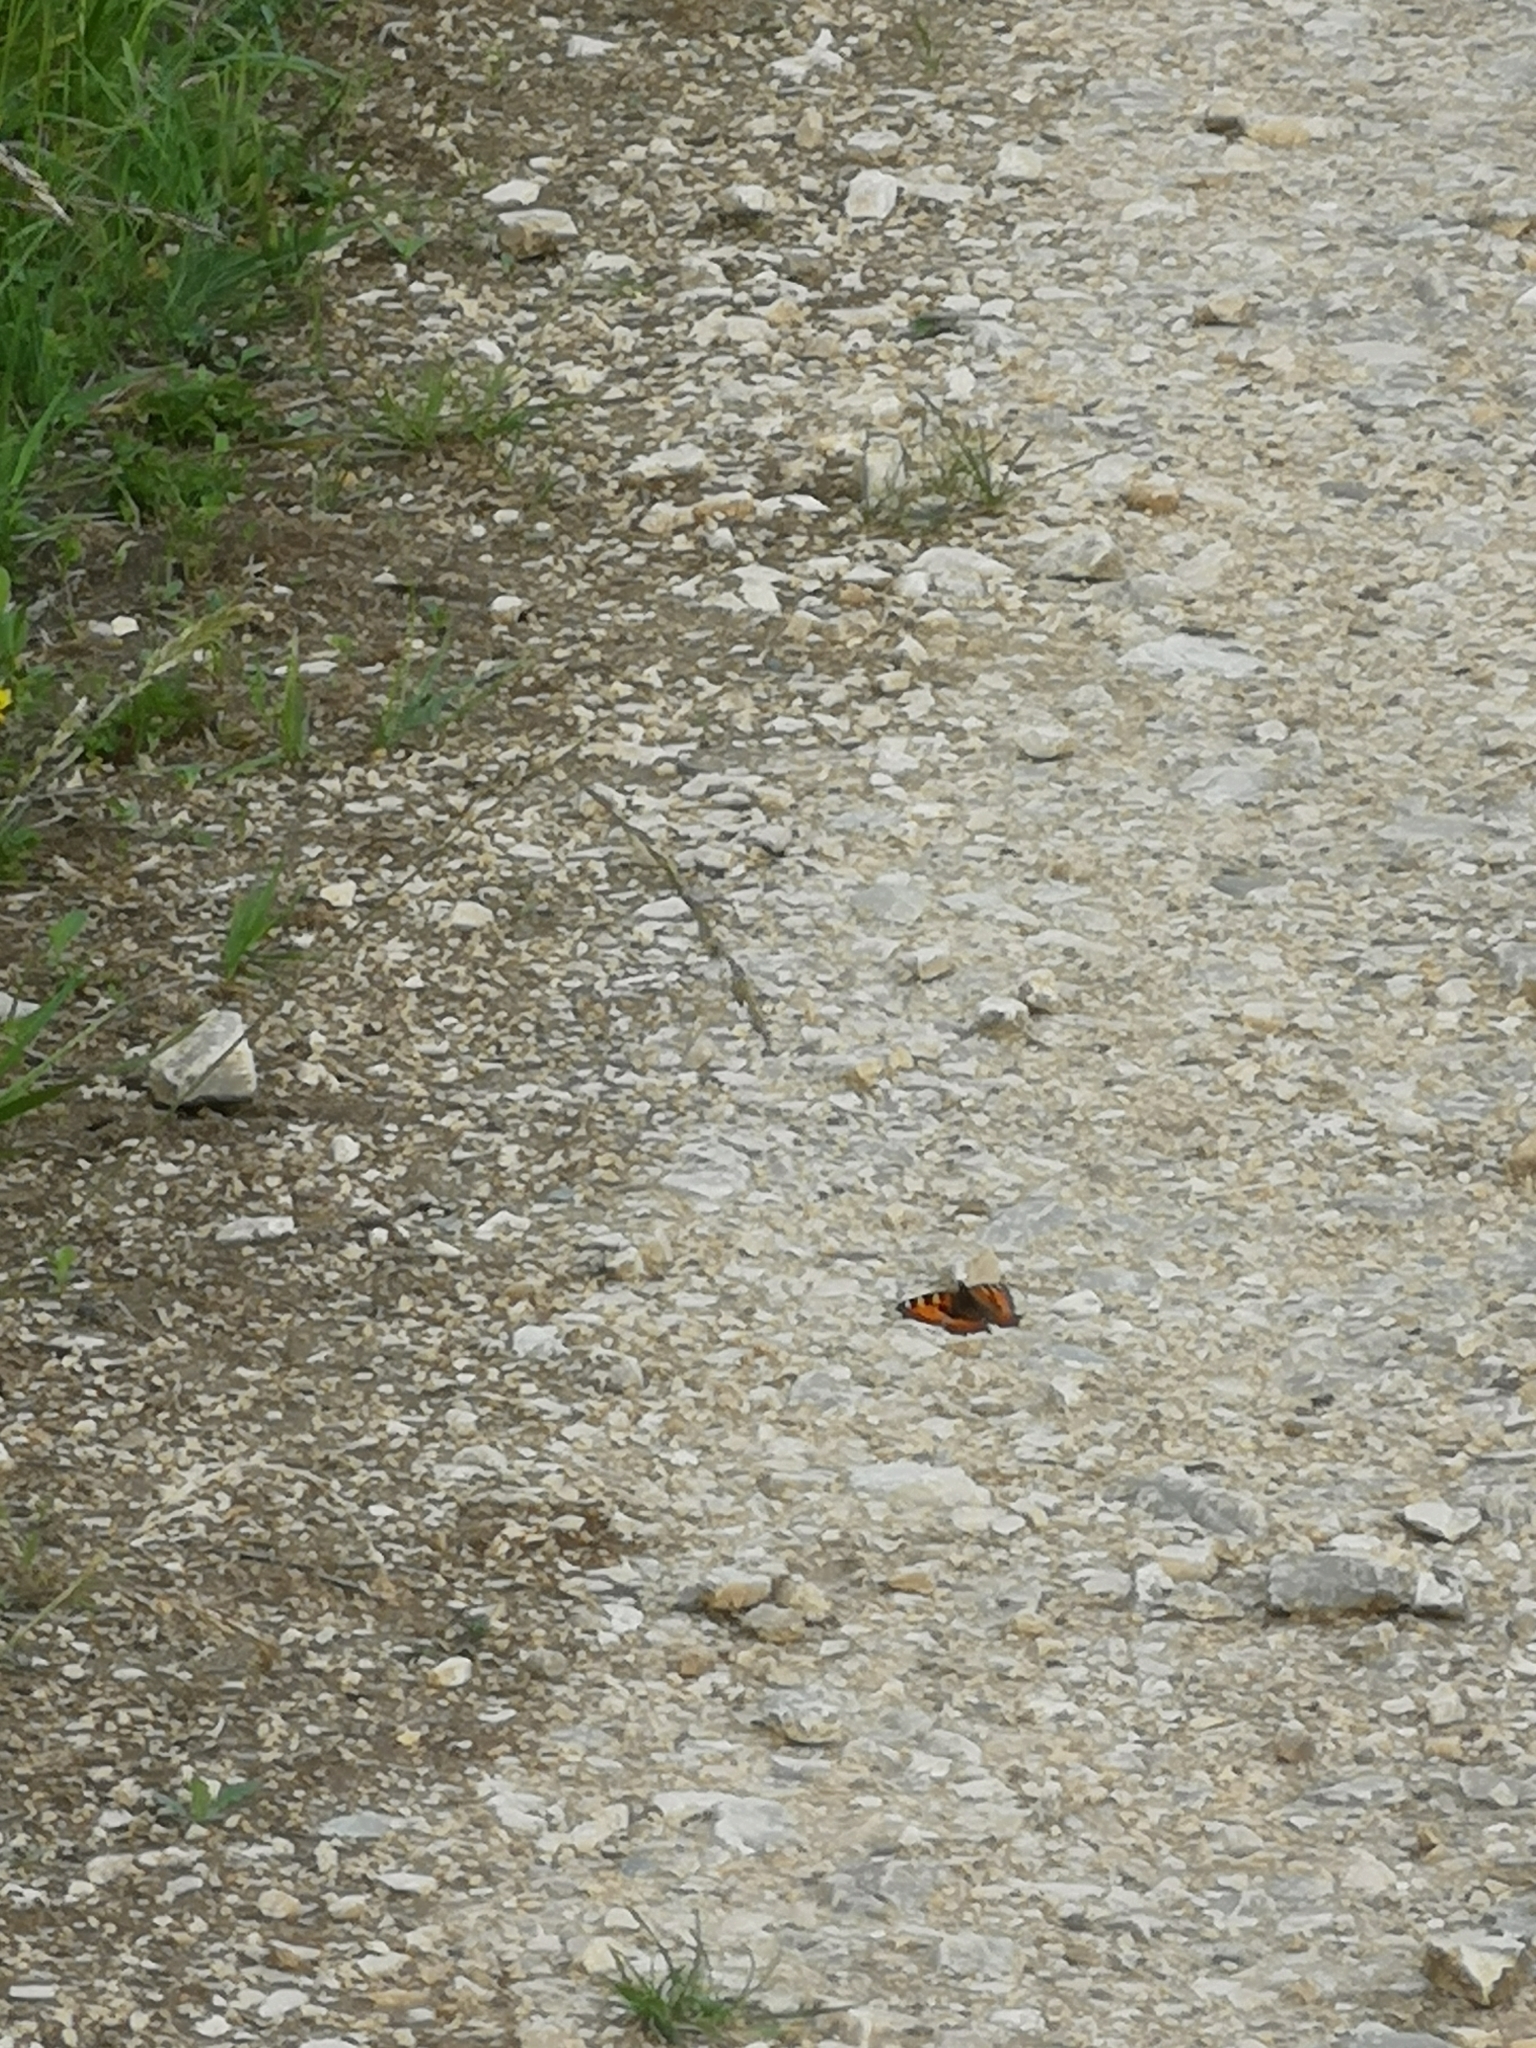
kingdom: Animalia
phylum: Arthropoda
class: Insecta
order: Lepidoptera
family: Nymphalidae
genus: Aglais
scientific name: Aglais urticae
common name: Small tortoiseshell
